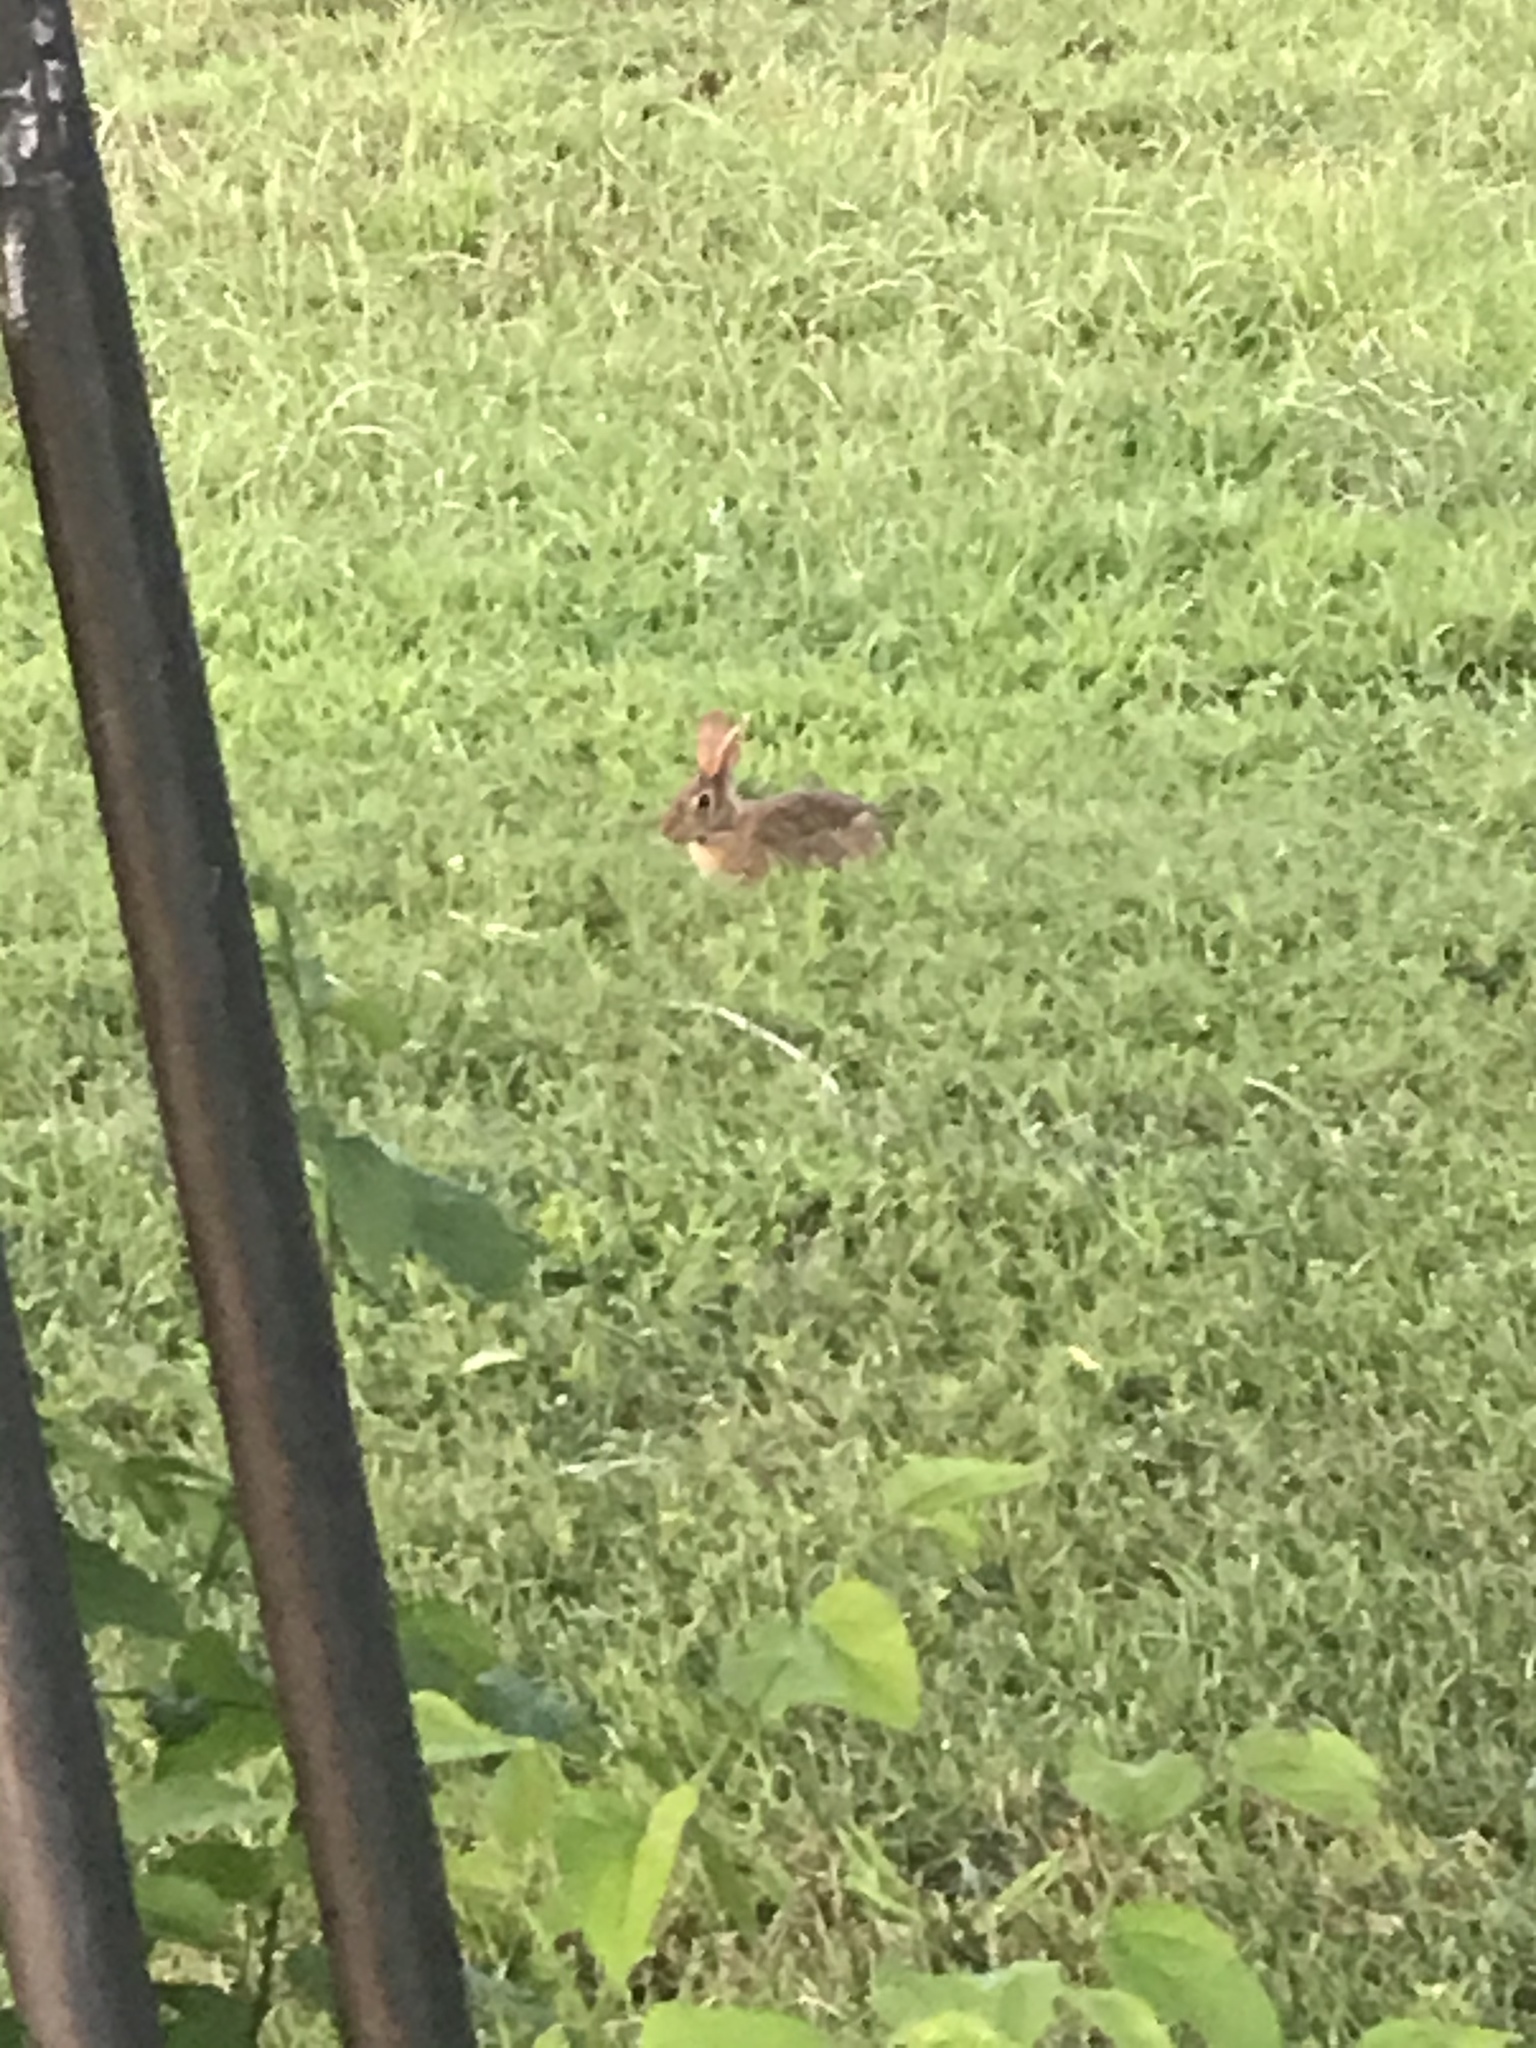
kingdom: Animalia
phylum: Chordata
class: Mammalia
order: Lagomorpha
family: Leporidae
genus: Sylvilagus
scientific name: Sylvilagus floridanus
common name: Eastern cottontail
